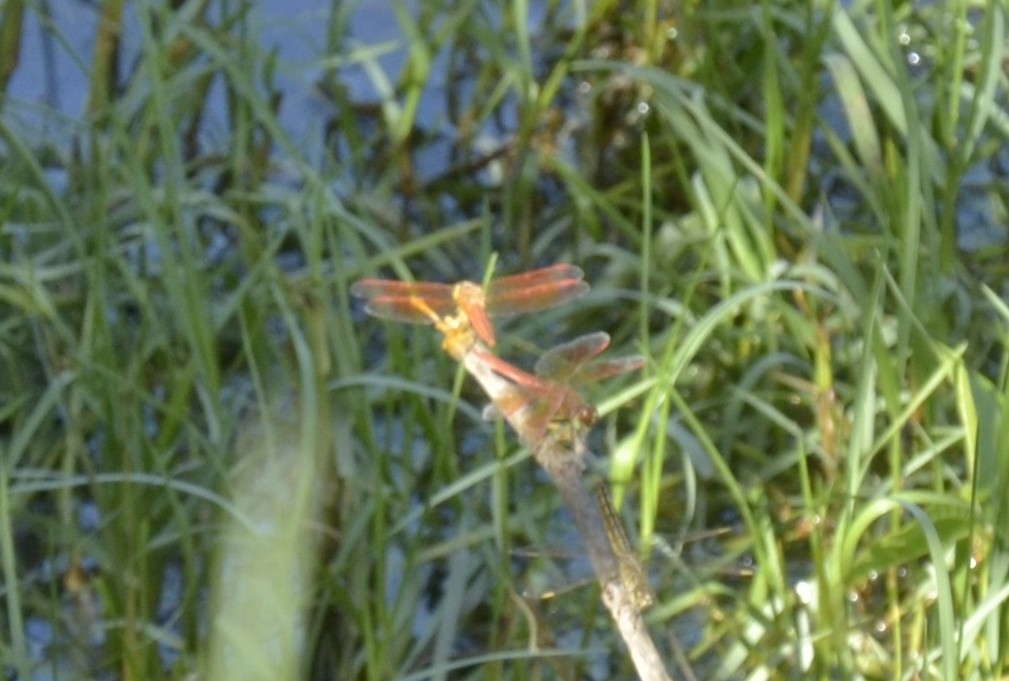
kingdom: Animalia
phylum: Arthropoda
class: Insecta
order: Odonata
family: Libellulidae
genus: Brachythemis
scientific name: Brachythemis contaminata
